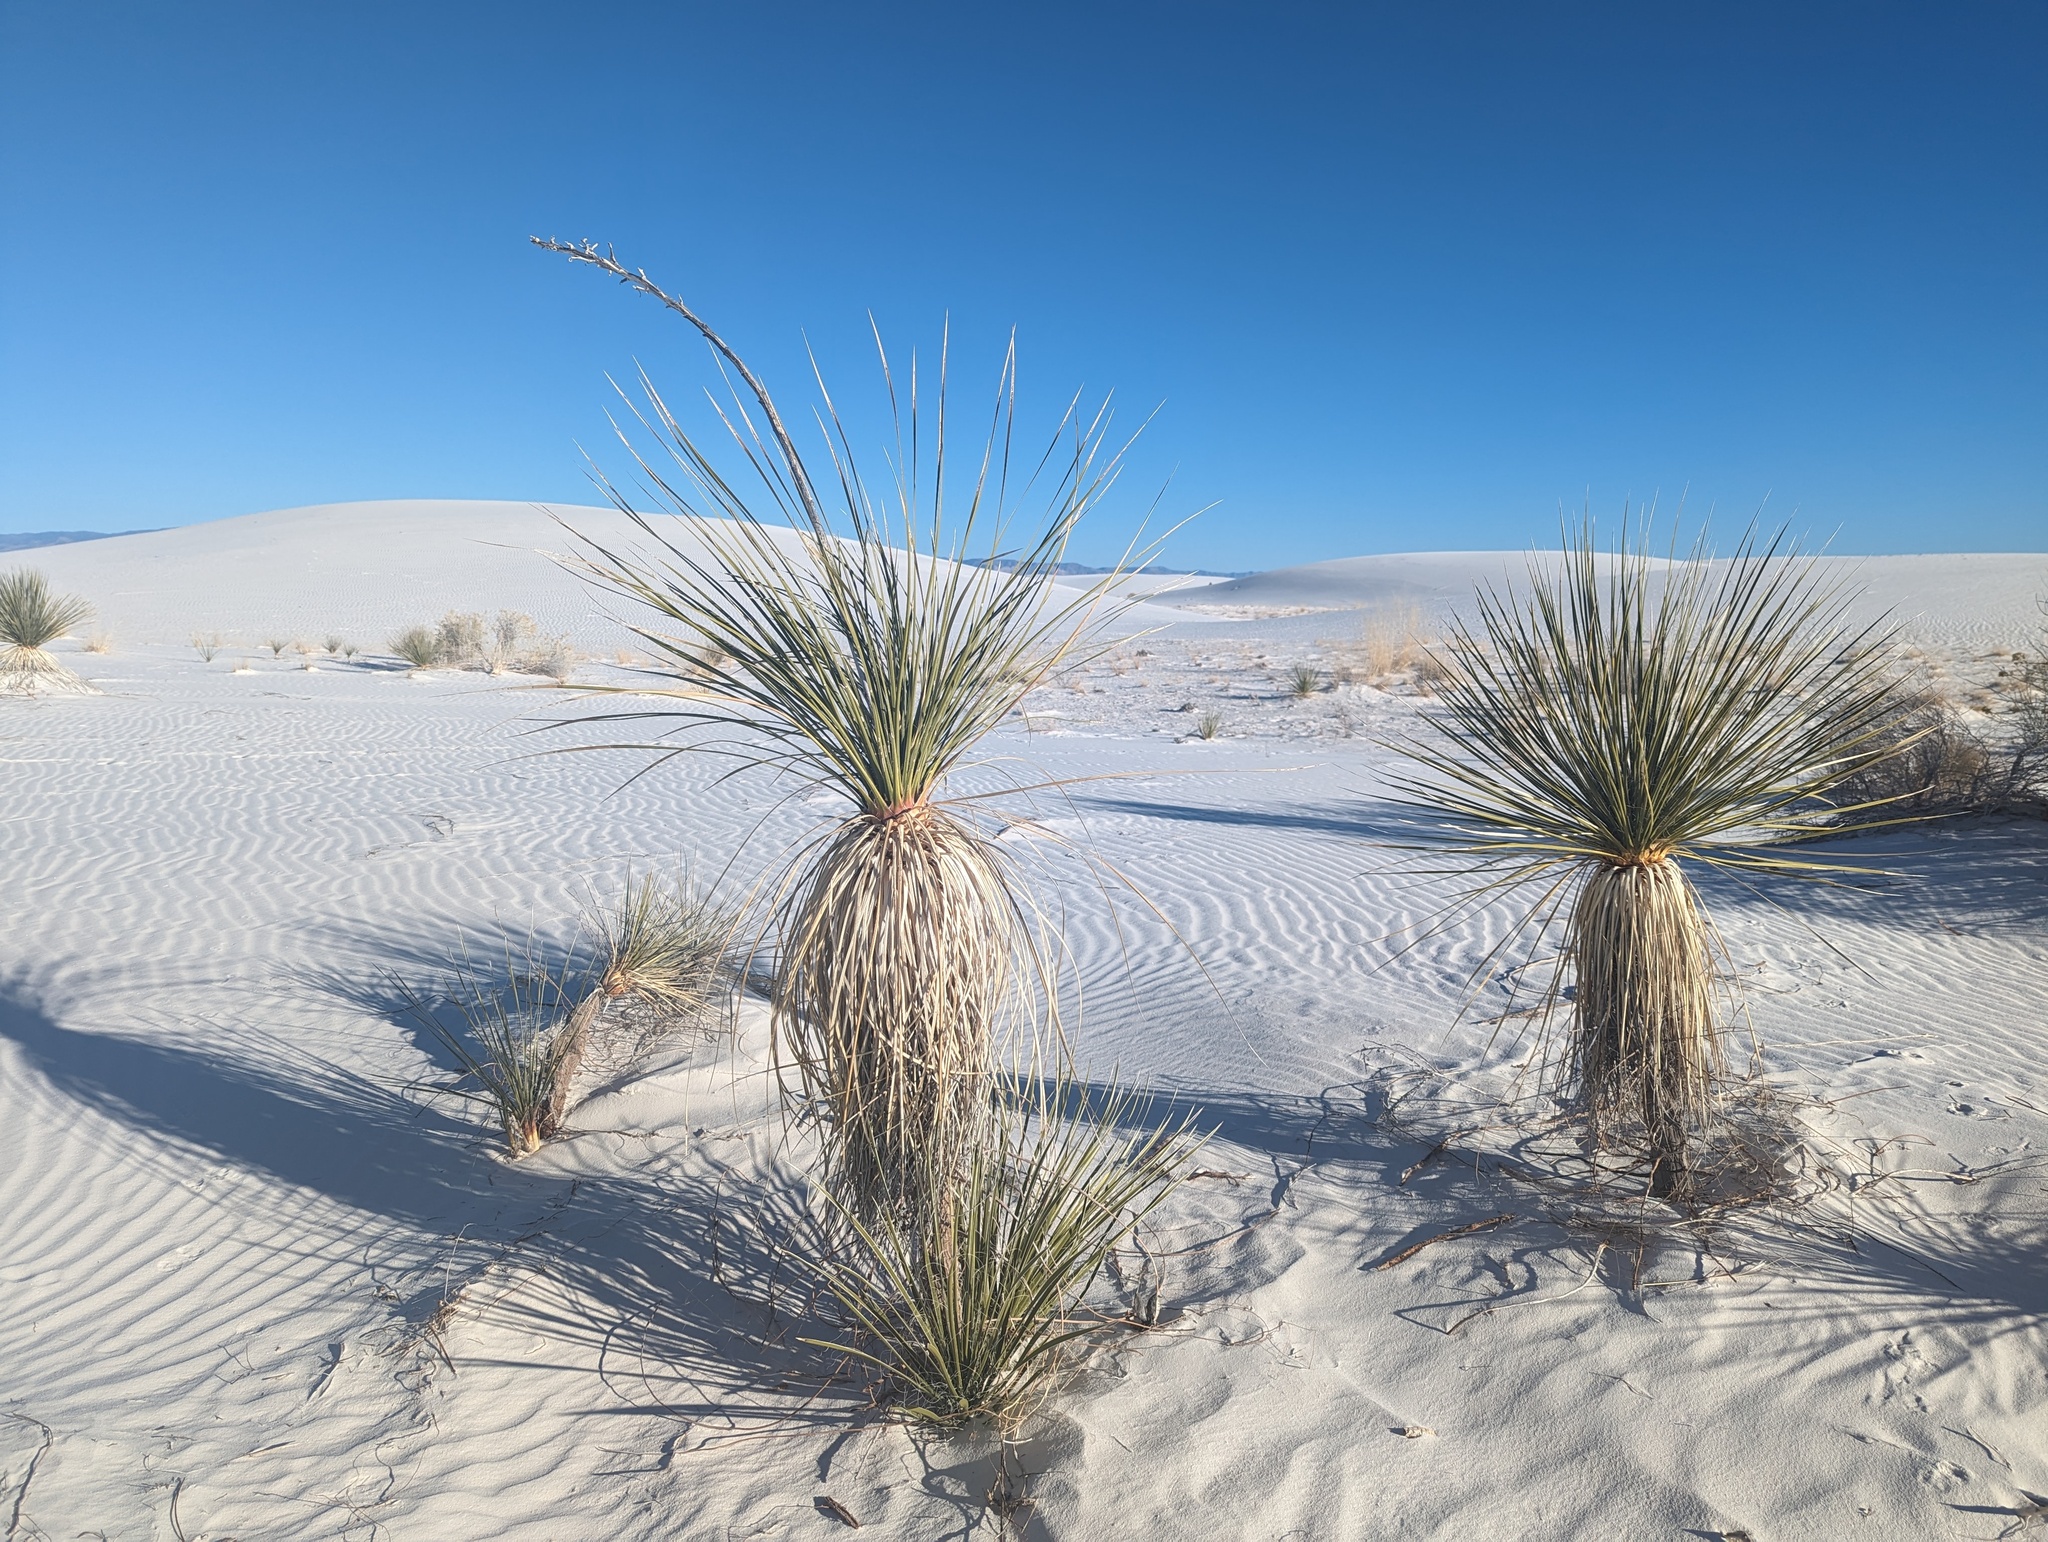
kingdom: Plantae
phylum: Tracheophyta
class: Liliopsida
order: Asparagales
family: Asparagaceae
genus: Yucca
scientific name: Yucca elata
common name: Palmella
